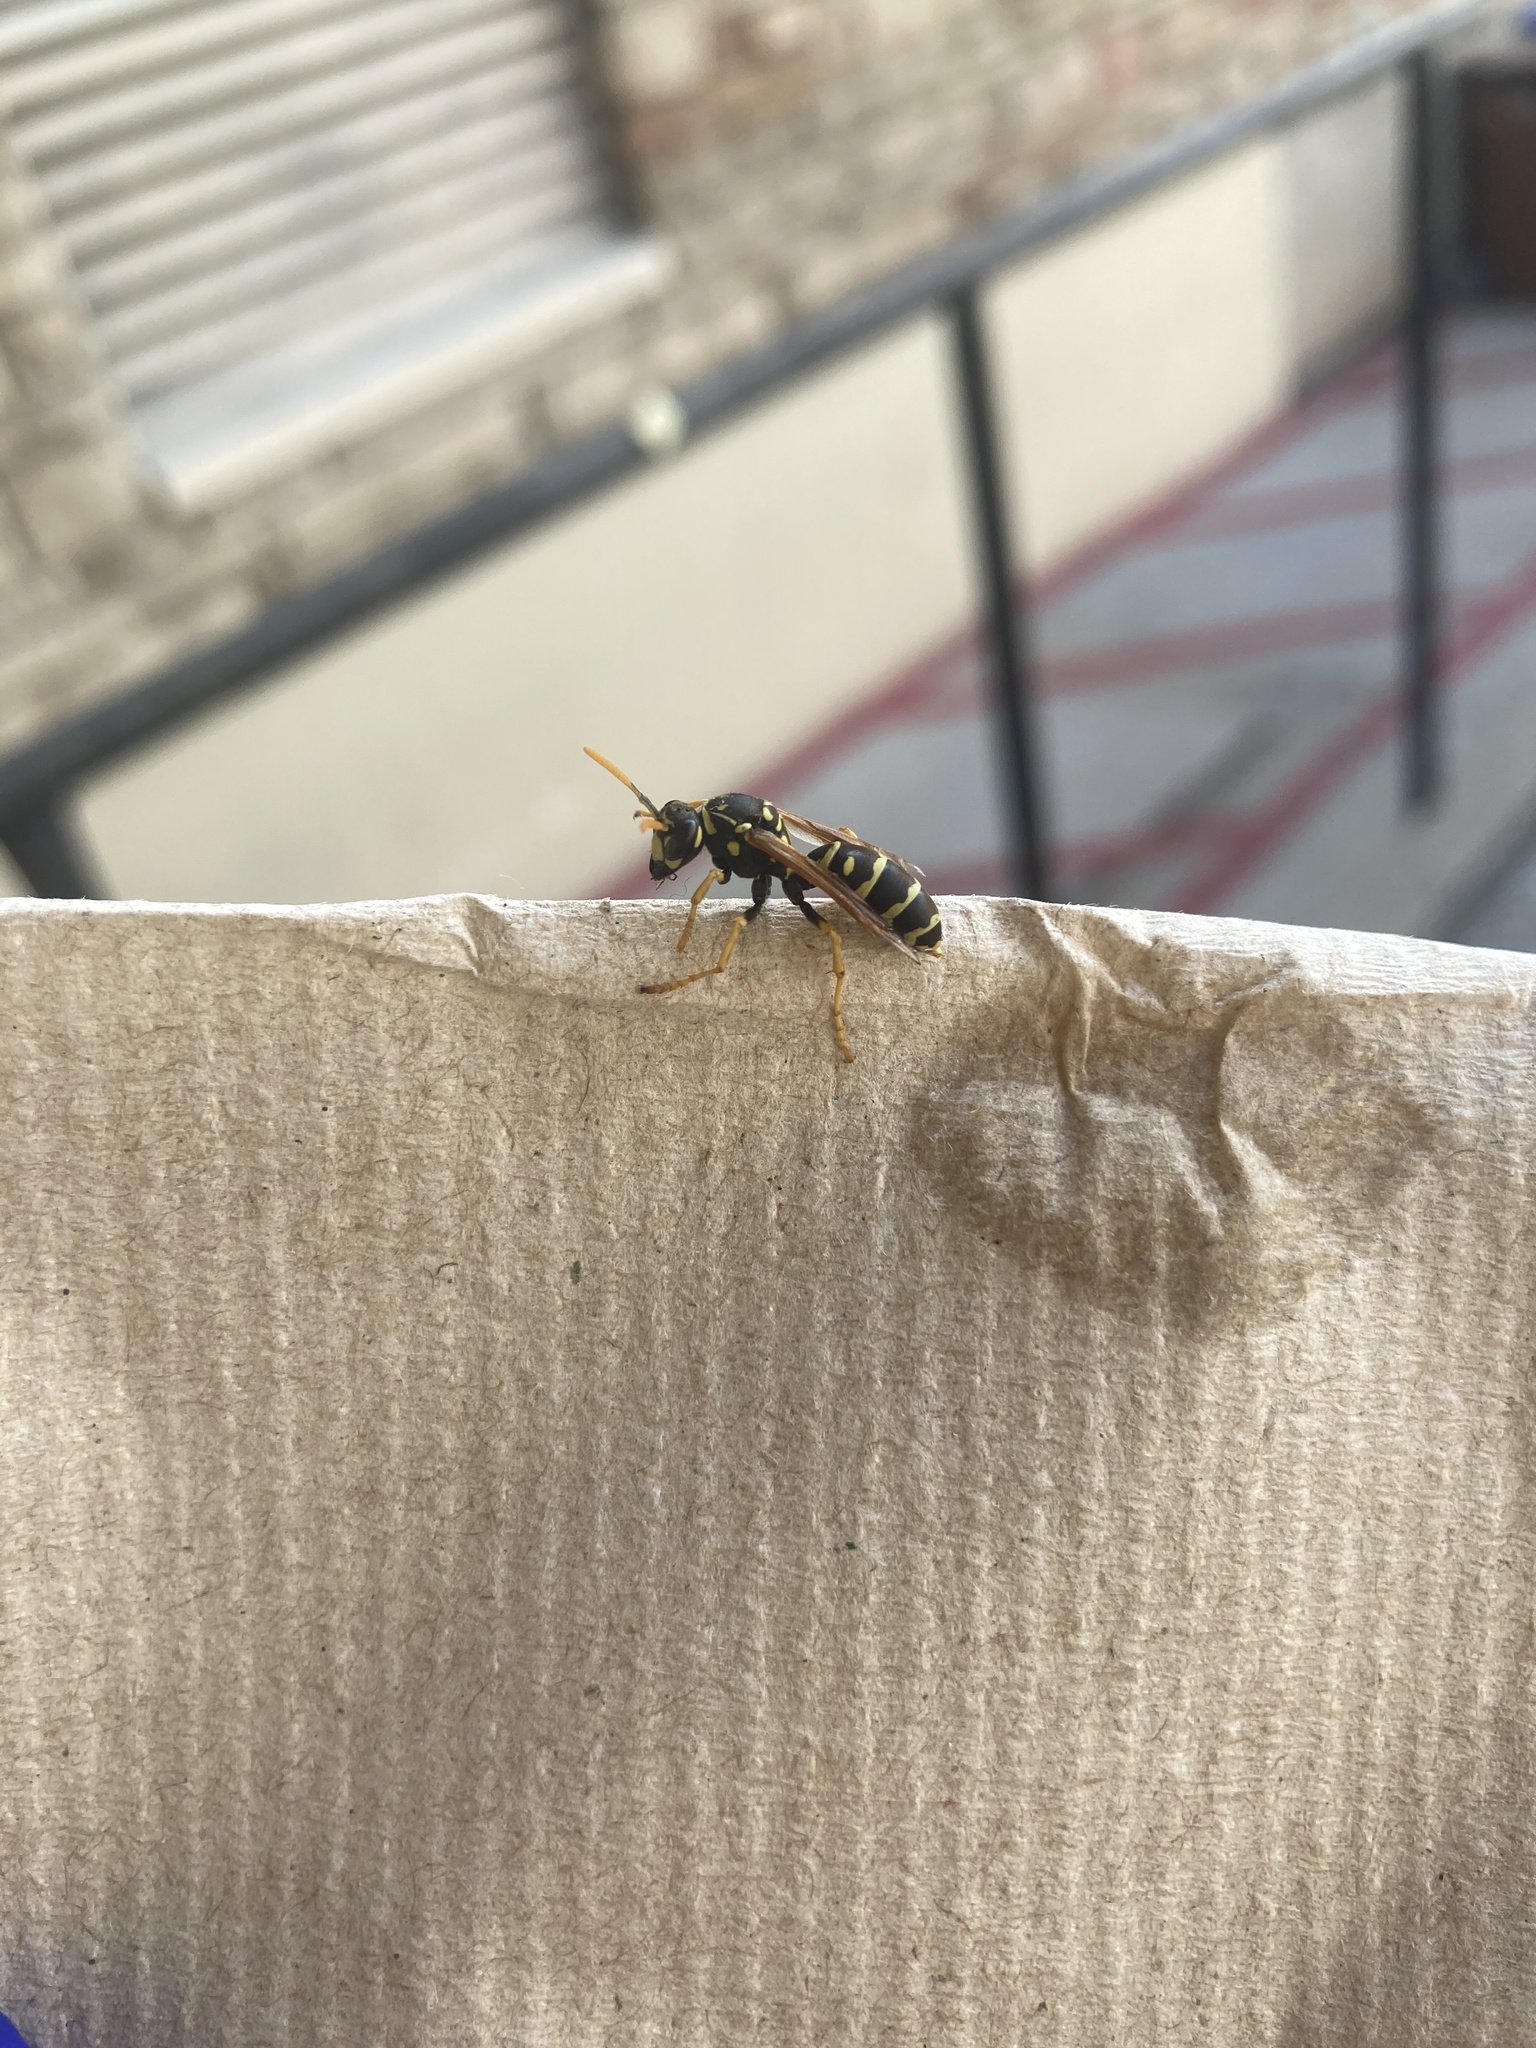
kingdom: Animalia
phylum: Arthropoda
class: Insecta
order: Hymenoptera
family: Eumenidae
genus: Polistes
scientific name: Polistes dominula
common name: Paper wasp
